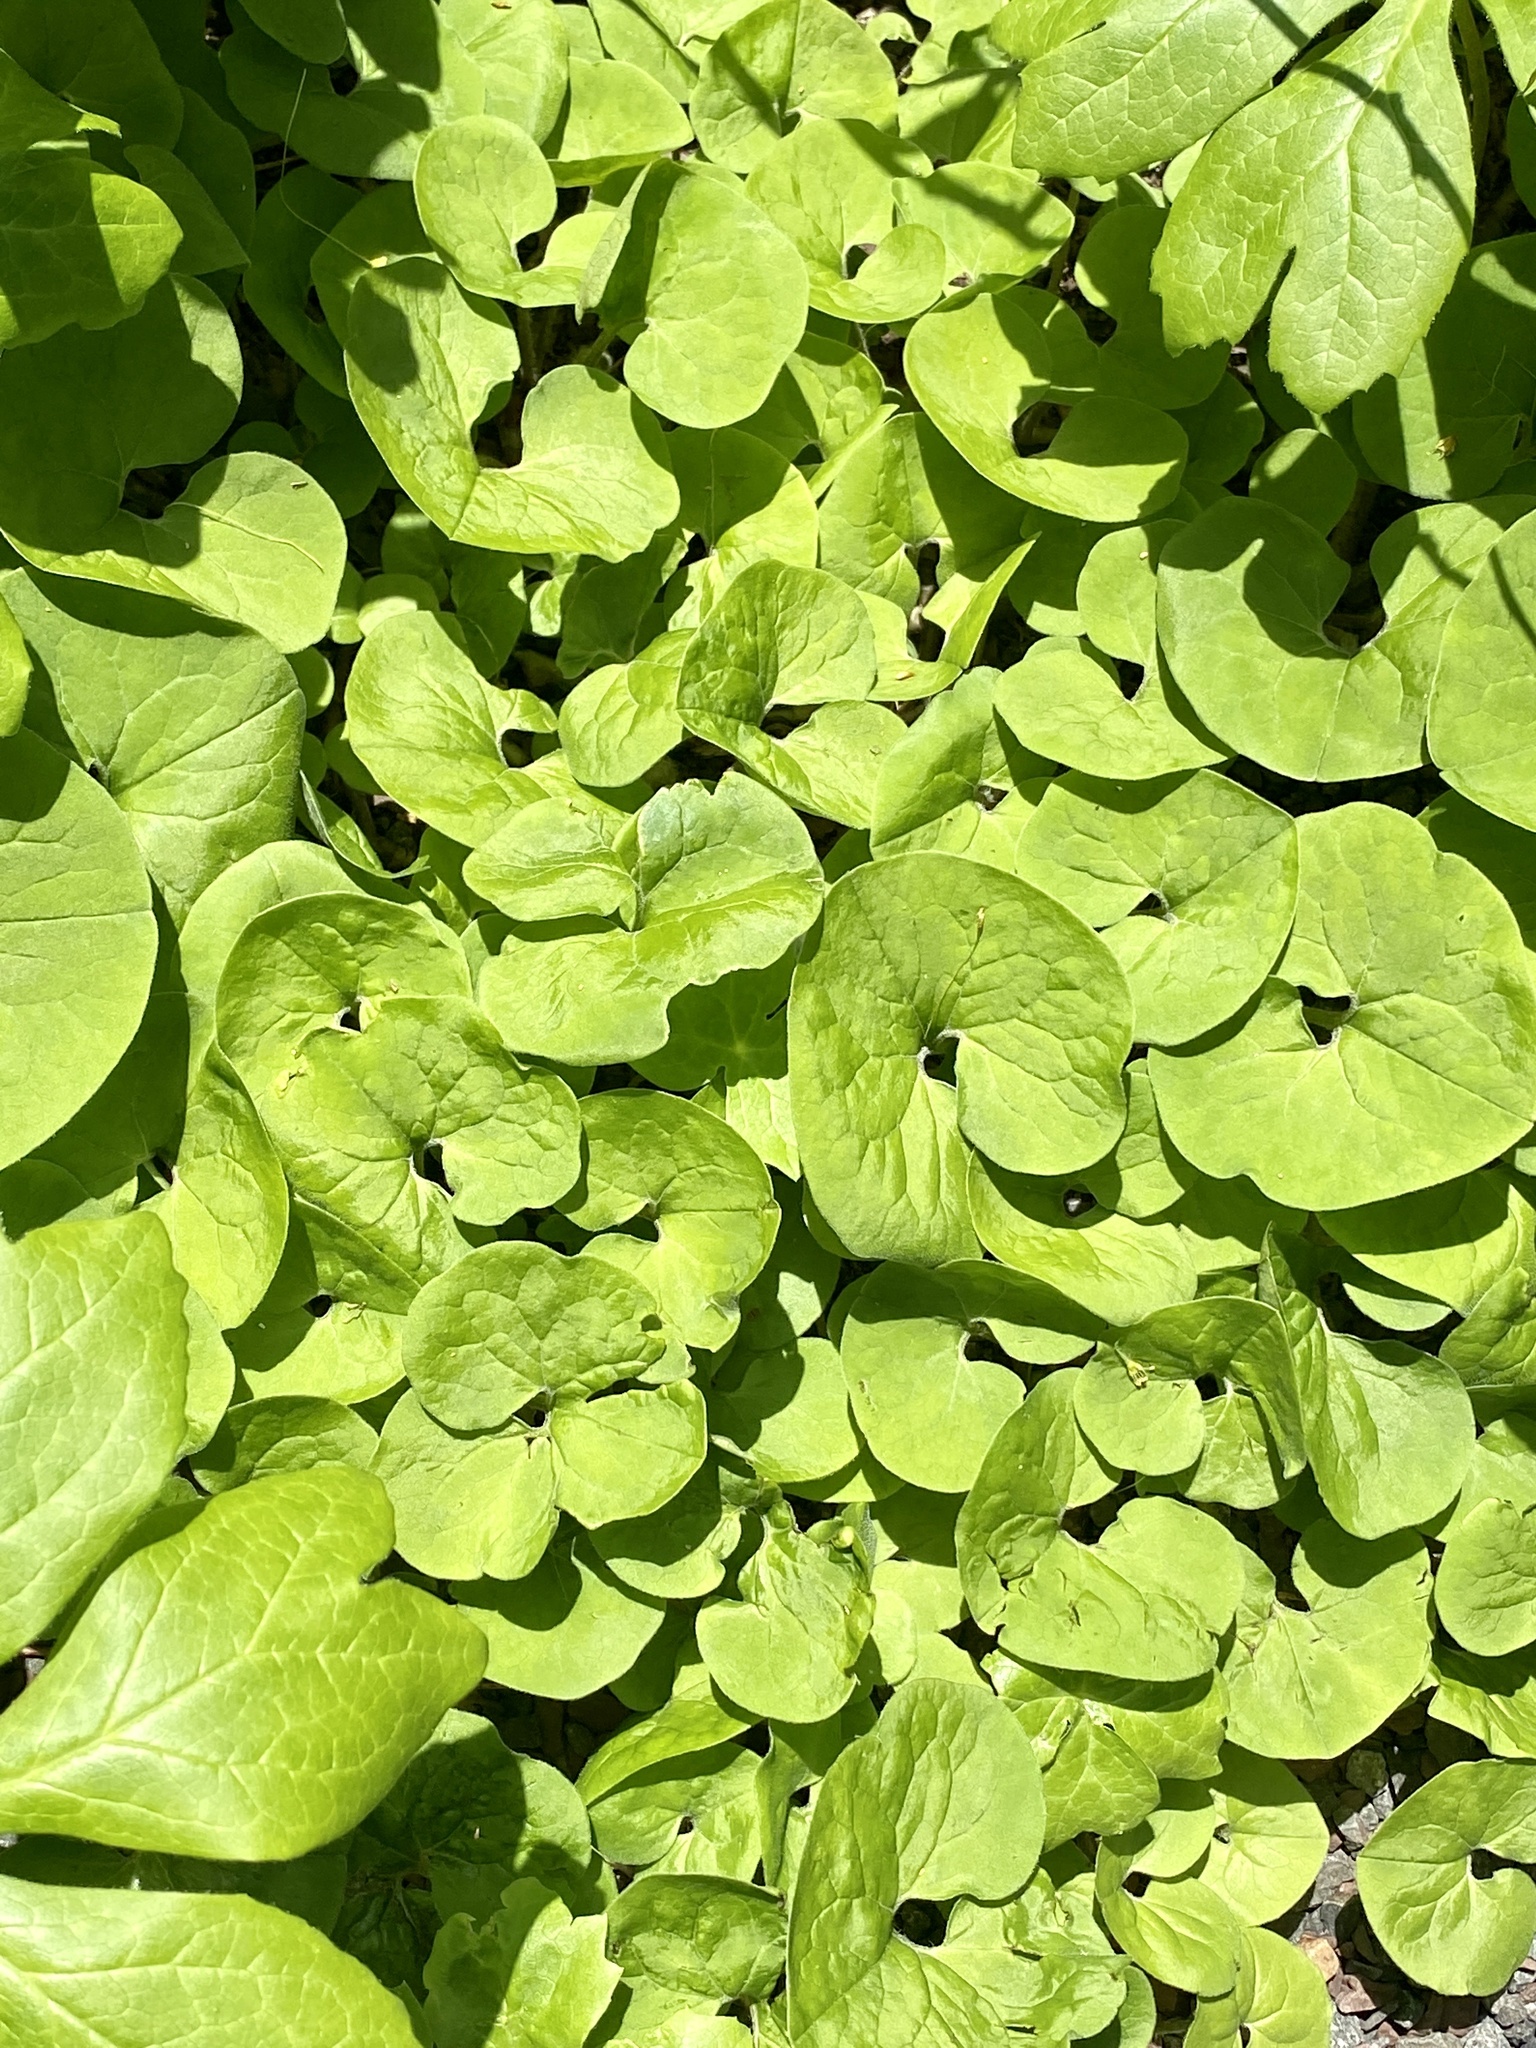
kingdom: Plantae
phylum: Tracheophyta
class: Magnoliopsida
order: Piperales
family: Aristolochiaceae
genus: Asarum
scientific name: Asarum canadense
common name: Wild ginger
